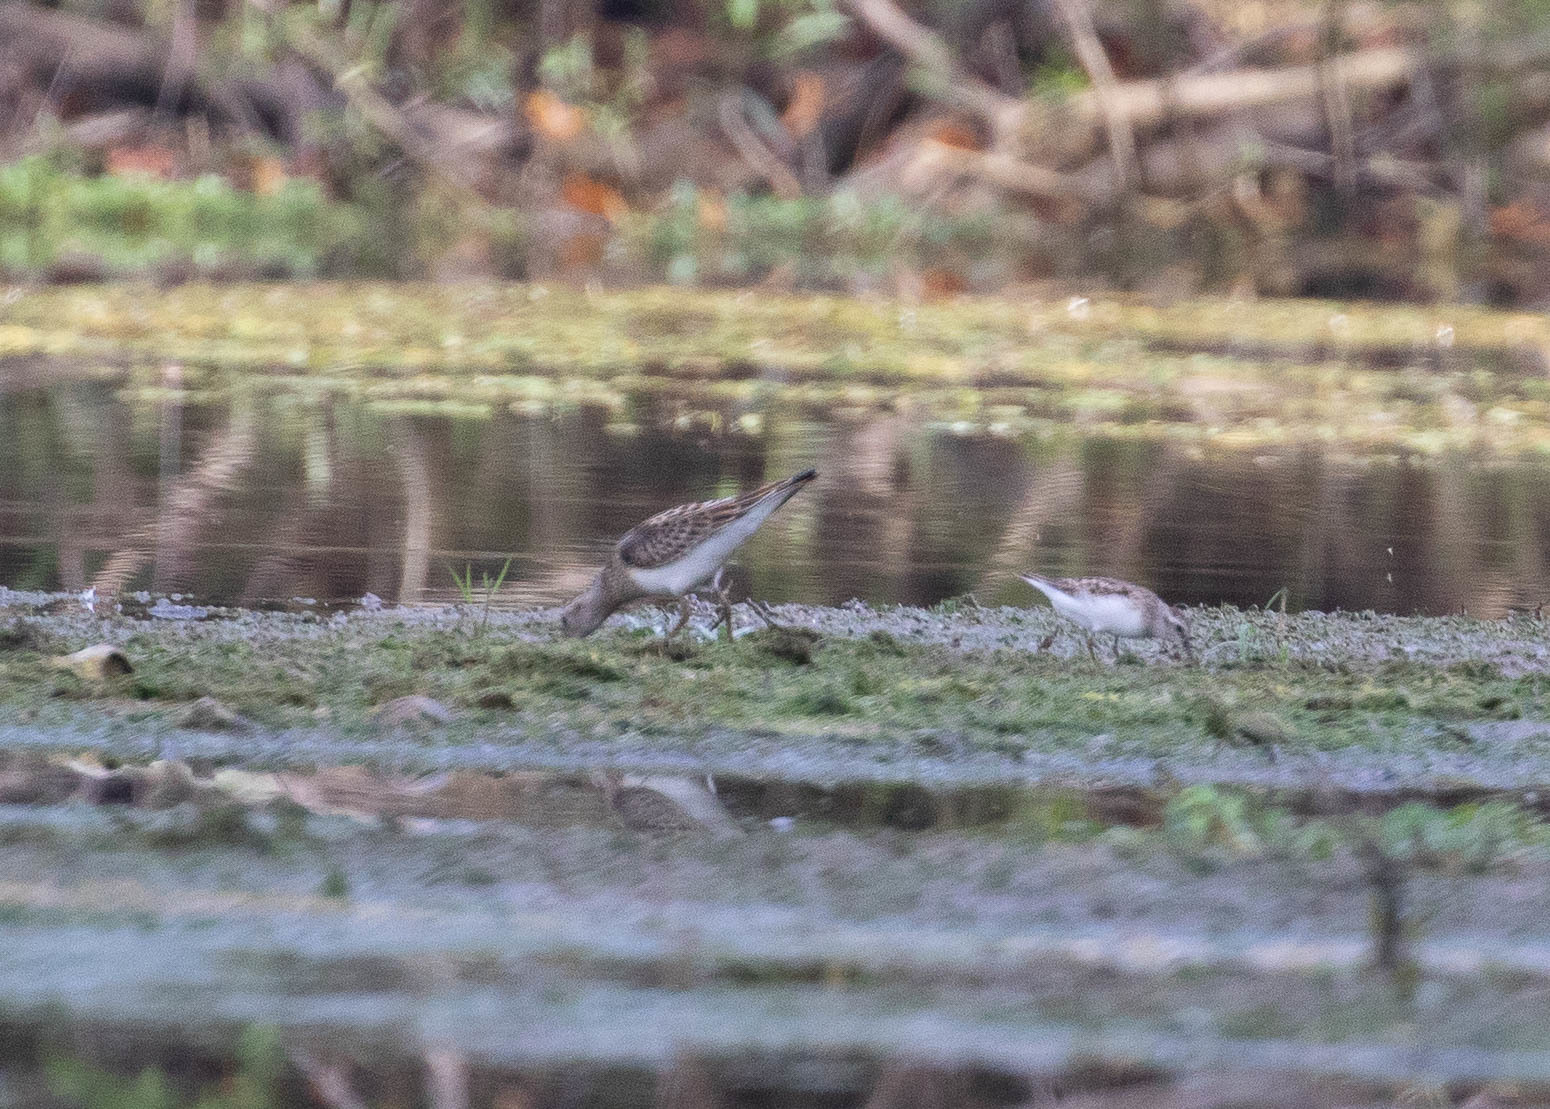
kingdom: Animalia
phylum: Chordata
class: Aves
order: Charadriiformes
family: Scolopacidae
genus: Calidris
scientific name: Calidris melanotos
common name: Pectoral sandpiper
